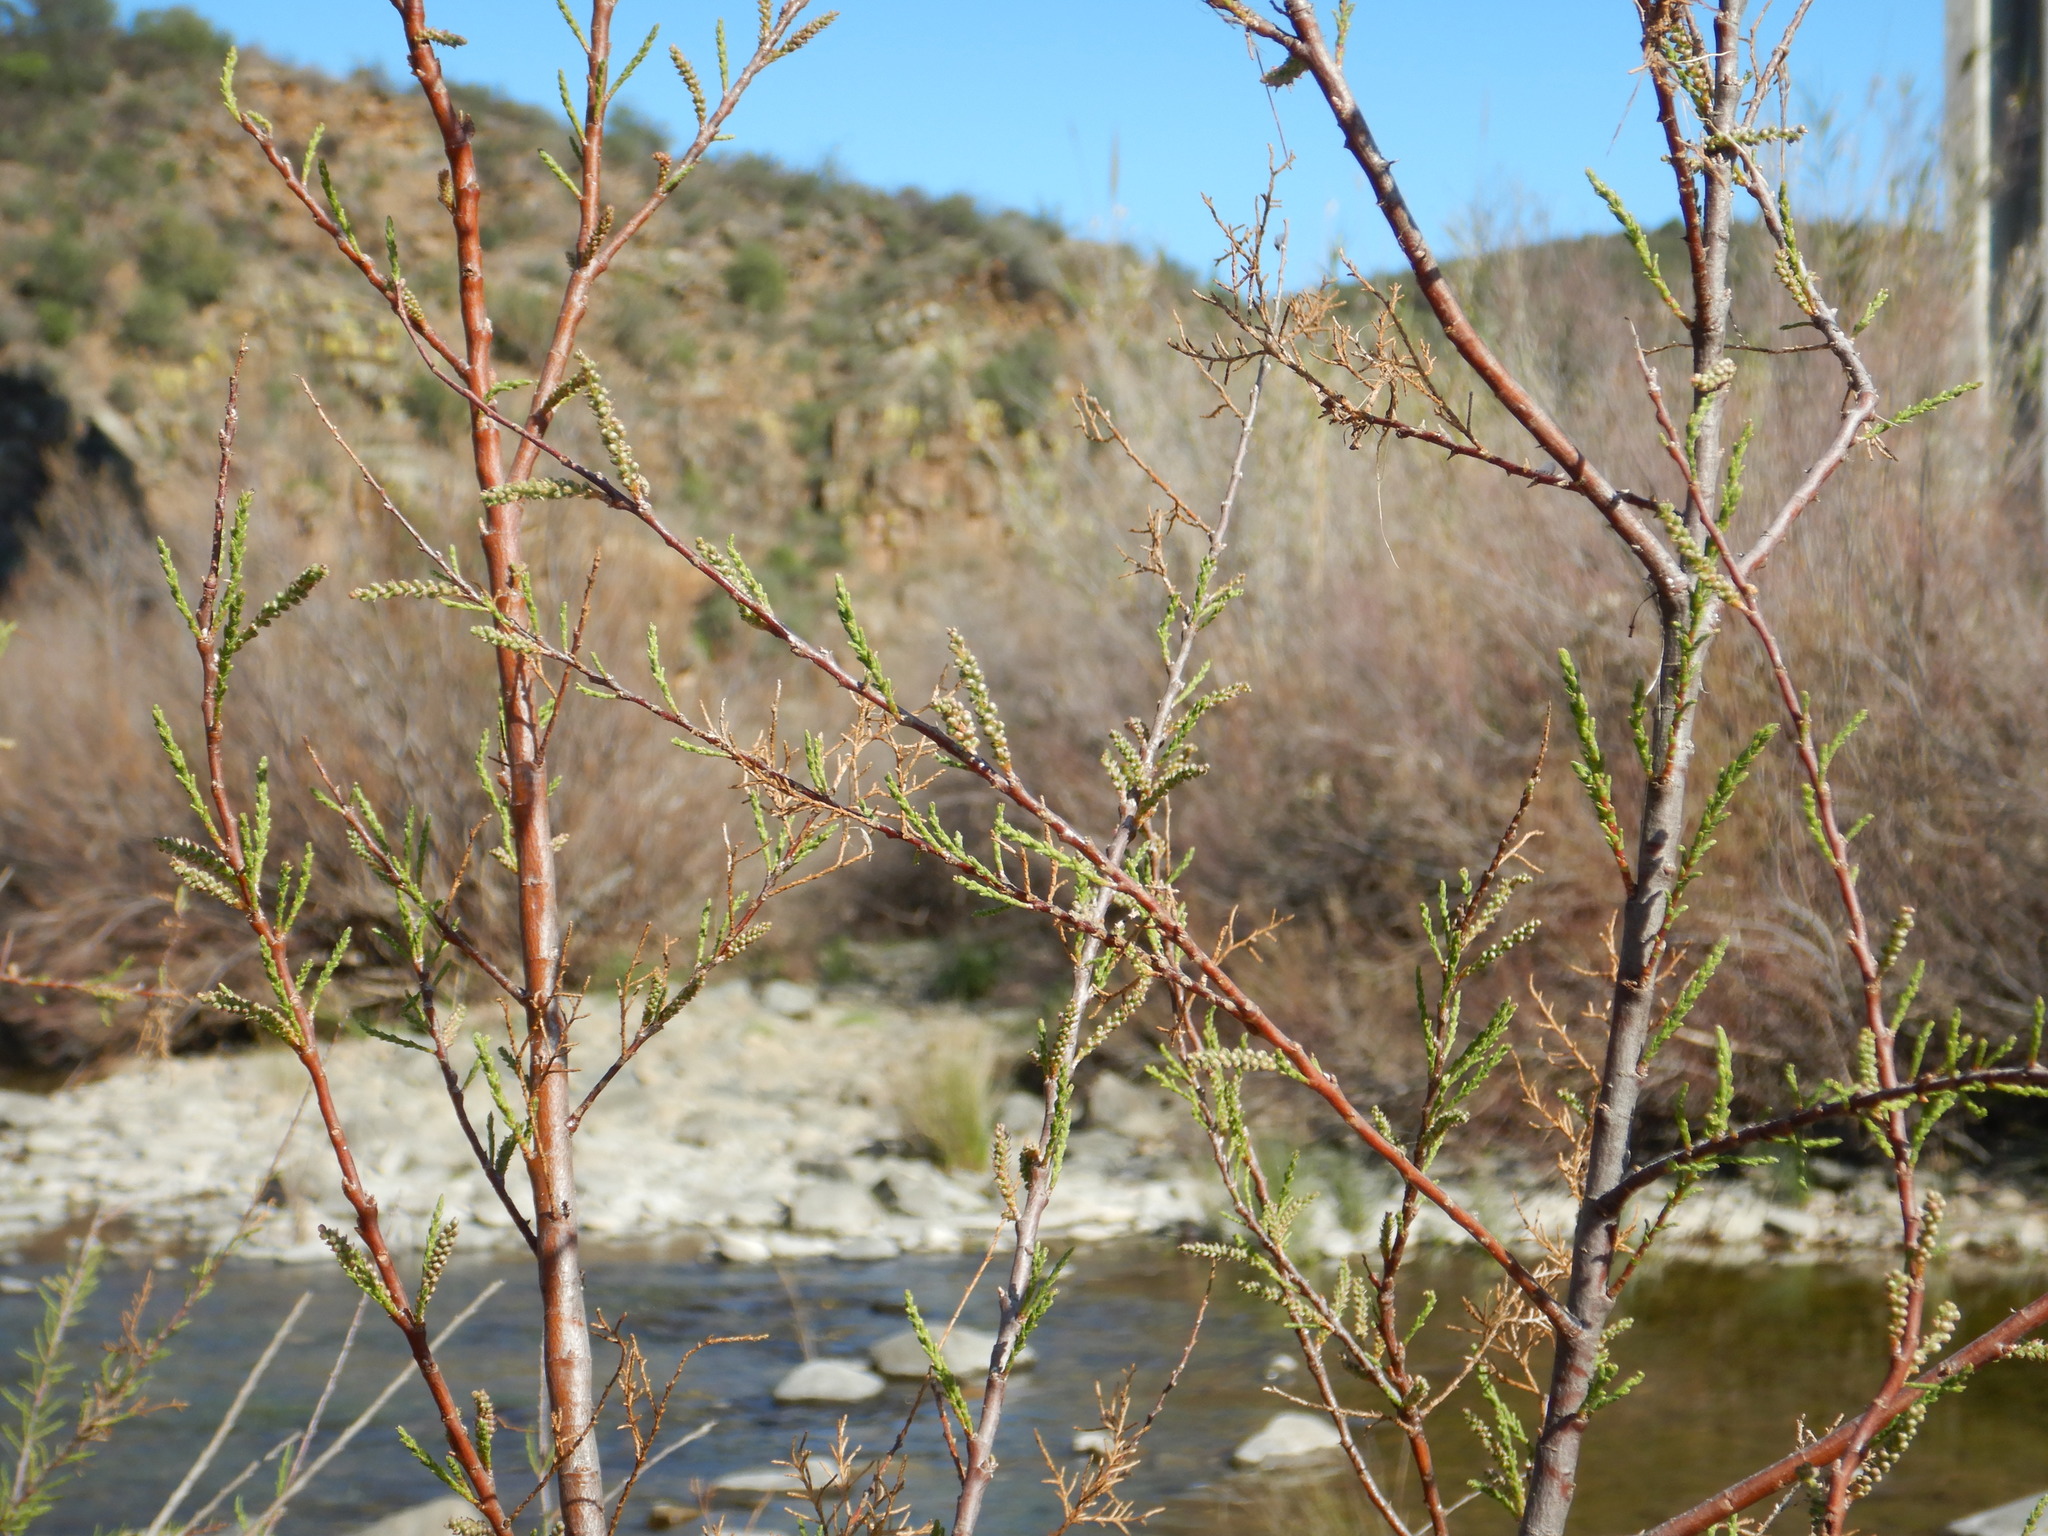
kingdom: Plantae
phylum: Tracheophyta
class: Magnoliopsida
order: Caryophyllales
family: Tamaricaceae
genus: Tamarix
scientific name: Tamarix
